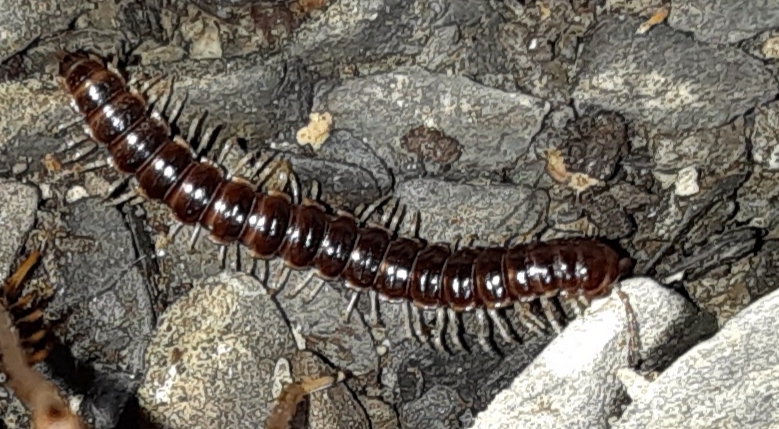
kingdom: Animalia
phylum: Arthropoda
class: Diplopoda
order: Polydesmida
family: Paradoxosomatidae
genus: Oxidus
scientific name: Oxidus gracilis
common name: Greenhouse millipede
